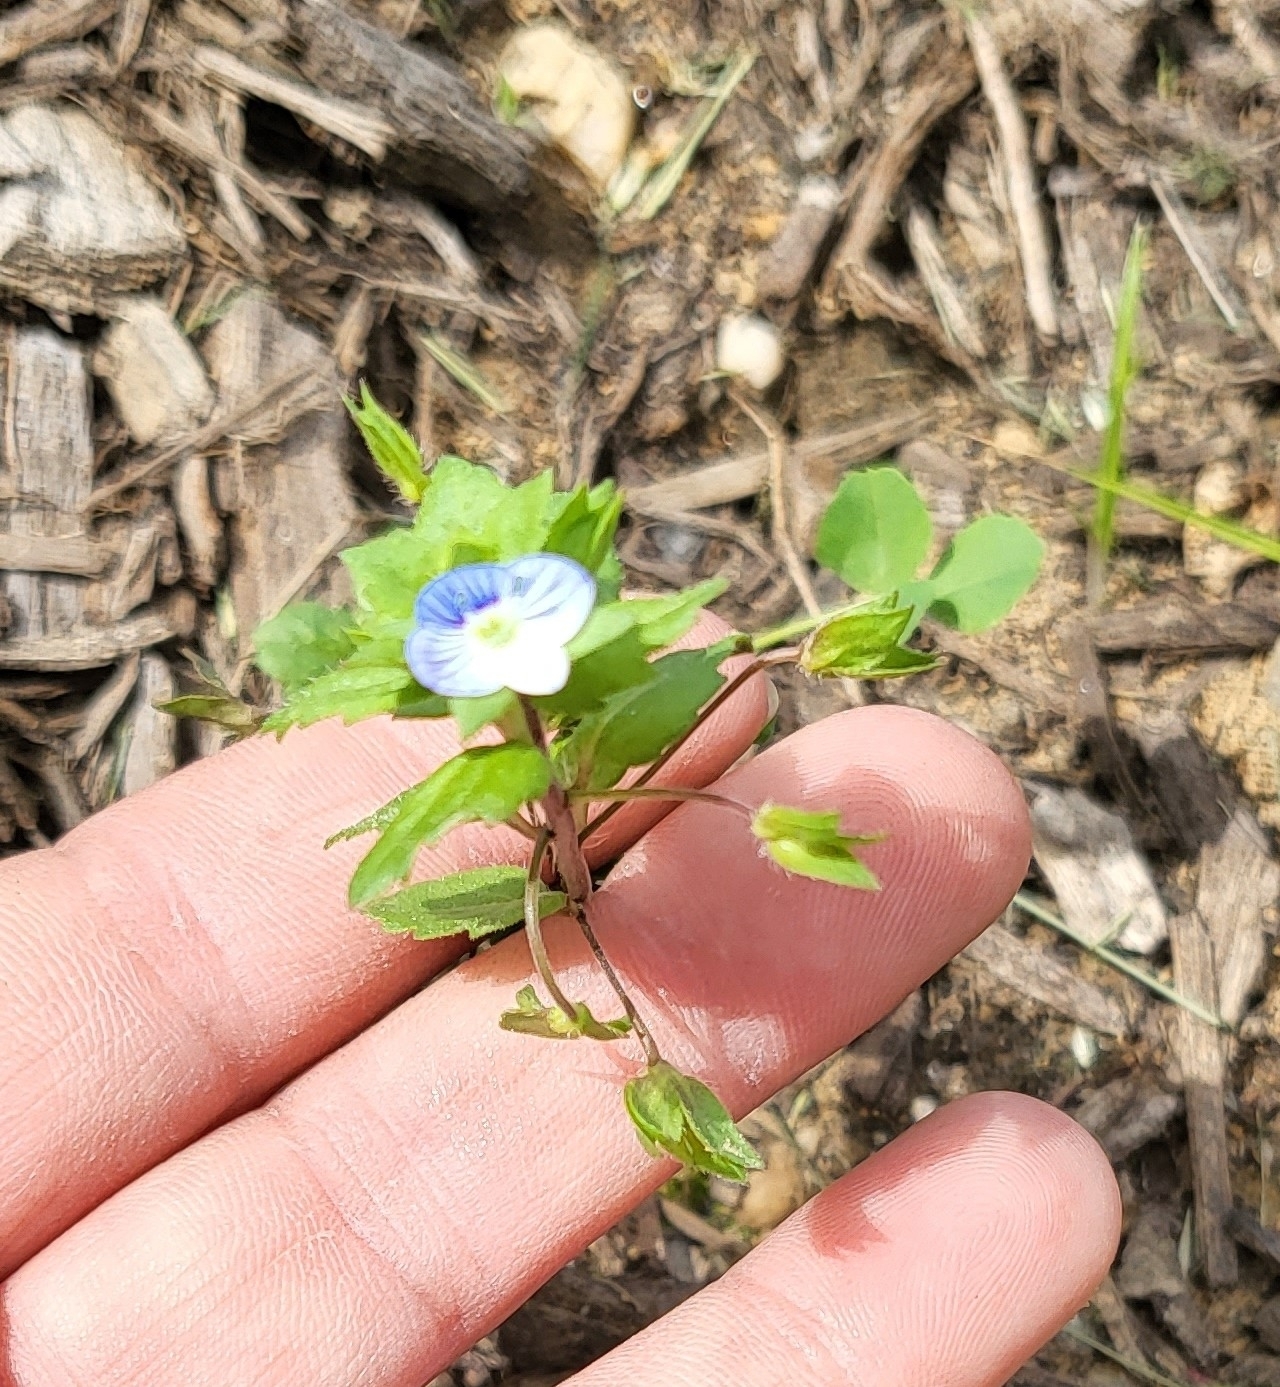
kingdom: Plantae
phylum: Tracheophyta
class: Magnoliopsida
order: Lamiales
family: Plantaginaceae
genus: Veronica
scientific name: Veronica persica
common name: Common field-speedwell
